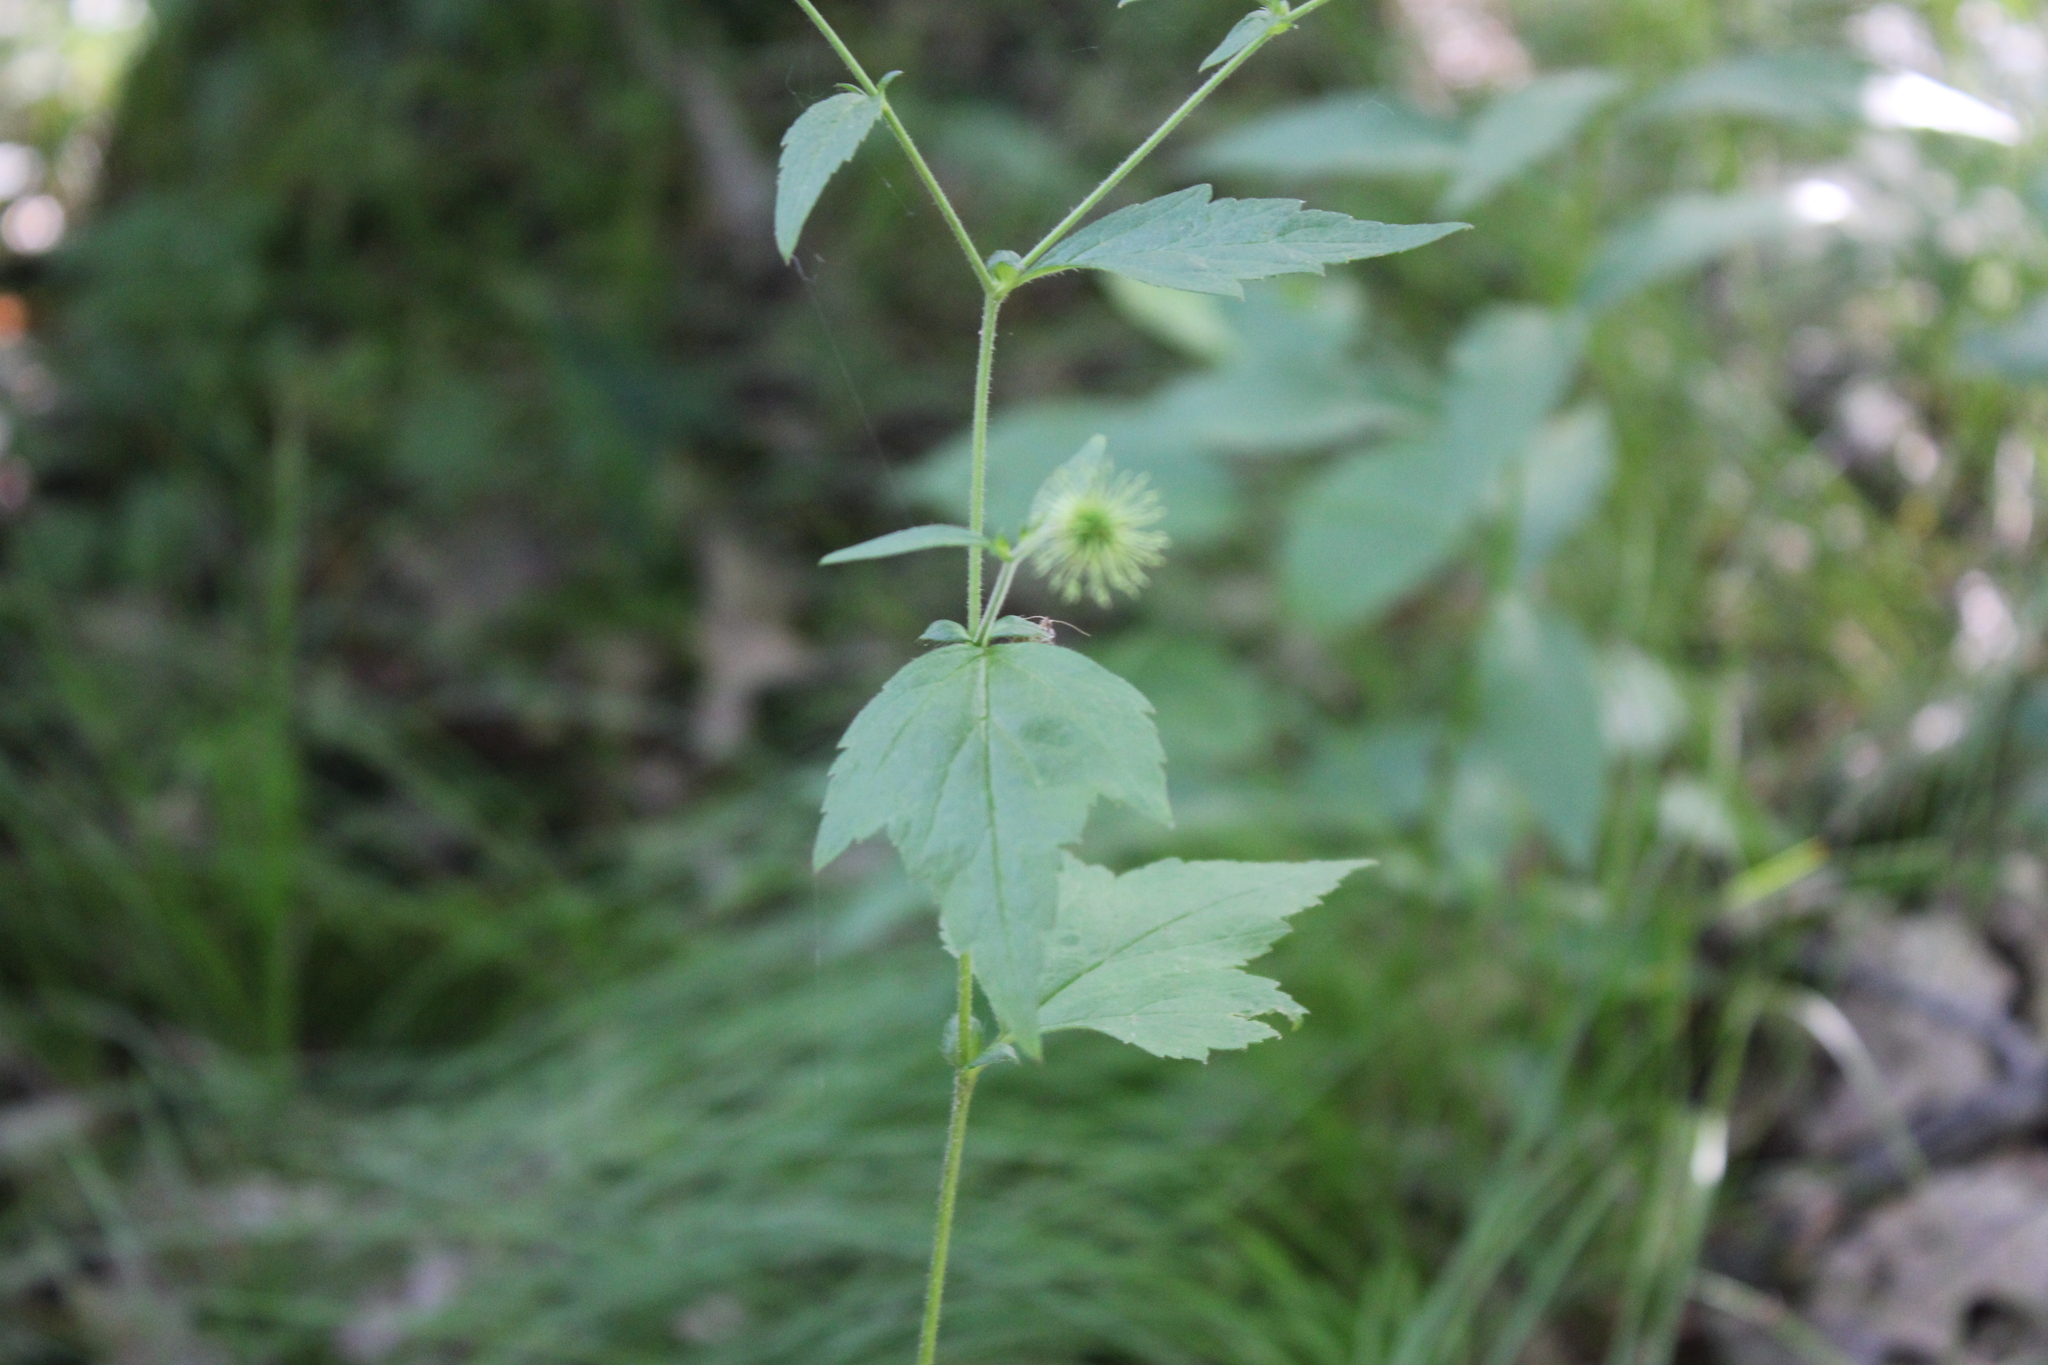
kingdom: Plantae
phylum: Tracheophyta
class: Magnoliopsida
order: Rosales
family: Rosaceae
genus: Geum
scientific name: Geum canadense
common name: White avens
